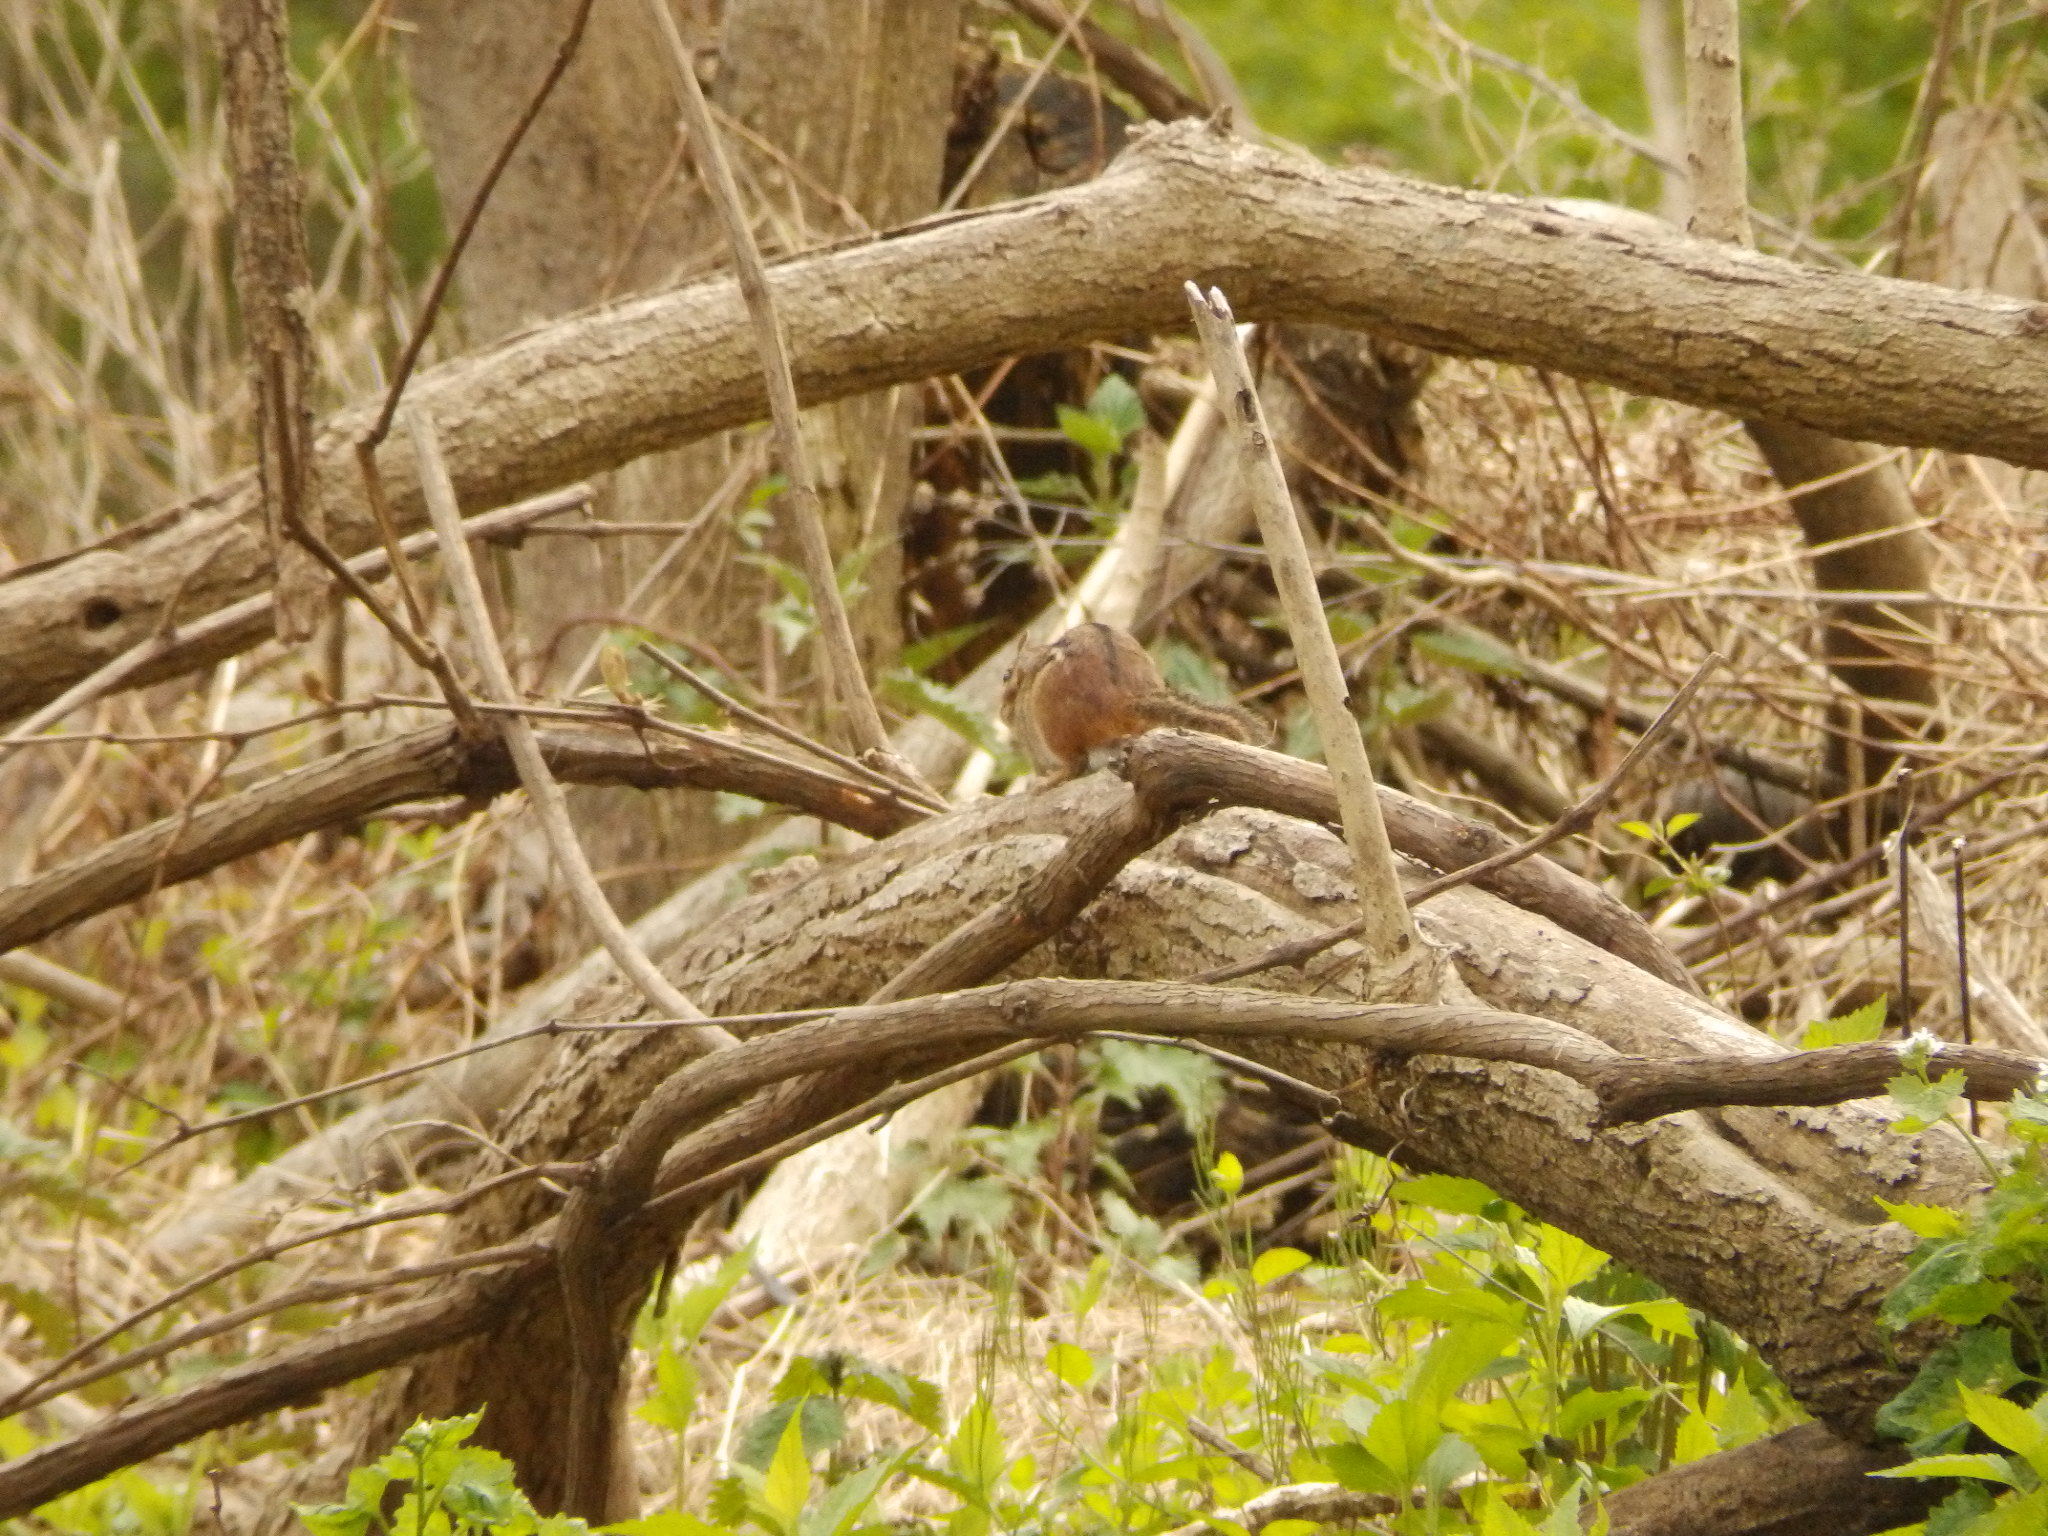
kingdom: Animalia
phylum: Chordata
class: Mammalia
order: Rodentia
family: Sciuridae
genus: Tamias
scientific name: Tamias striatus
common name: Eastern chipmunk
